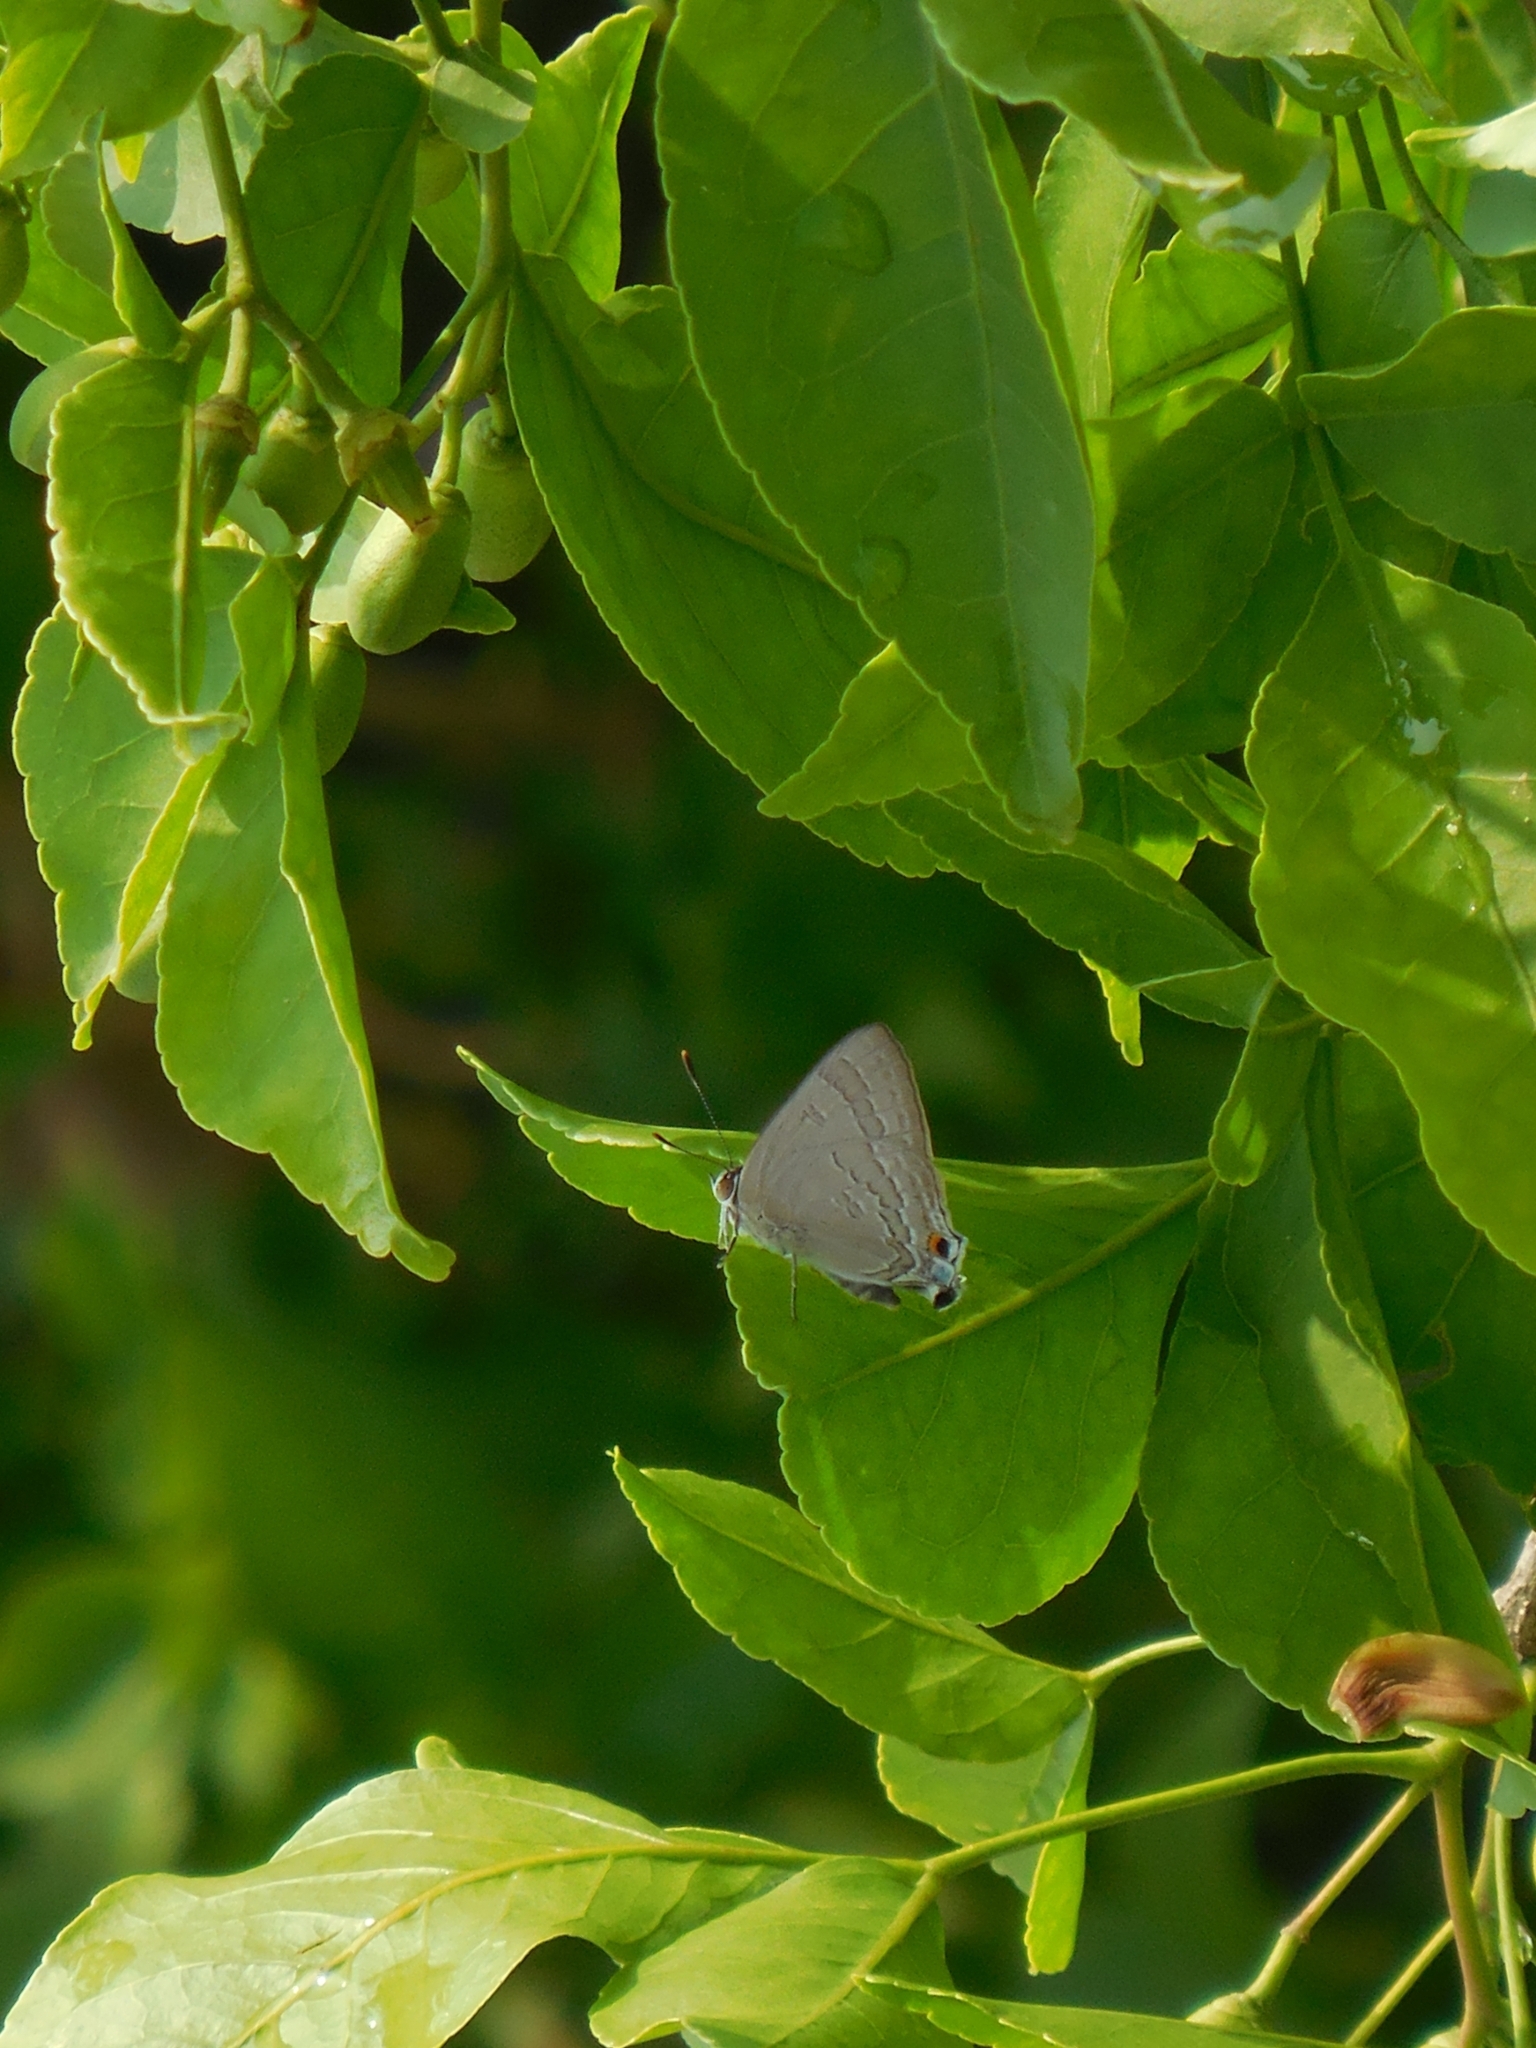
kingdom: Animalia
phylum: Arthropoda
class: Insecta
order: Lepidoptera
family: Lycaenidae
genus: Deudorix
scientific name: Deudorix
